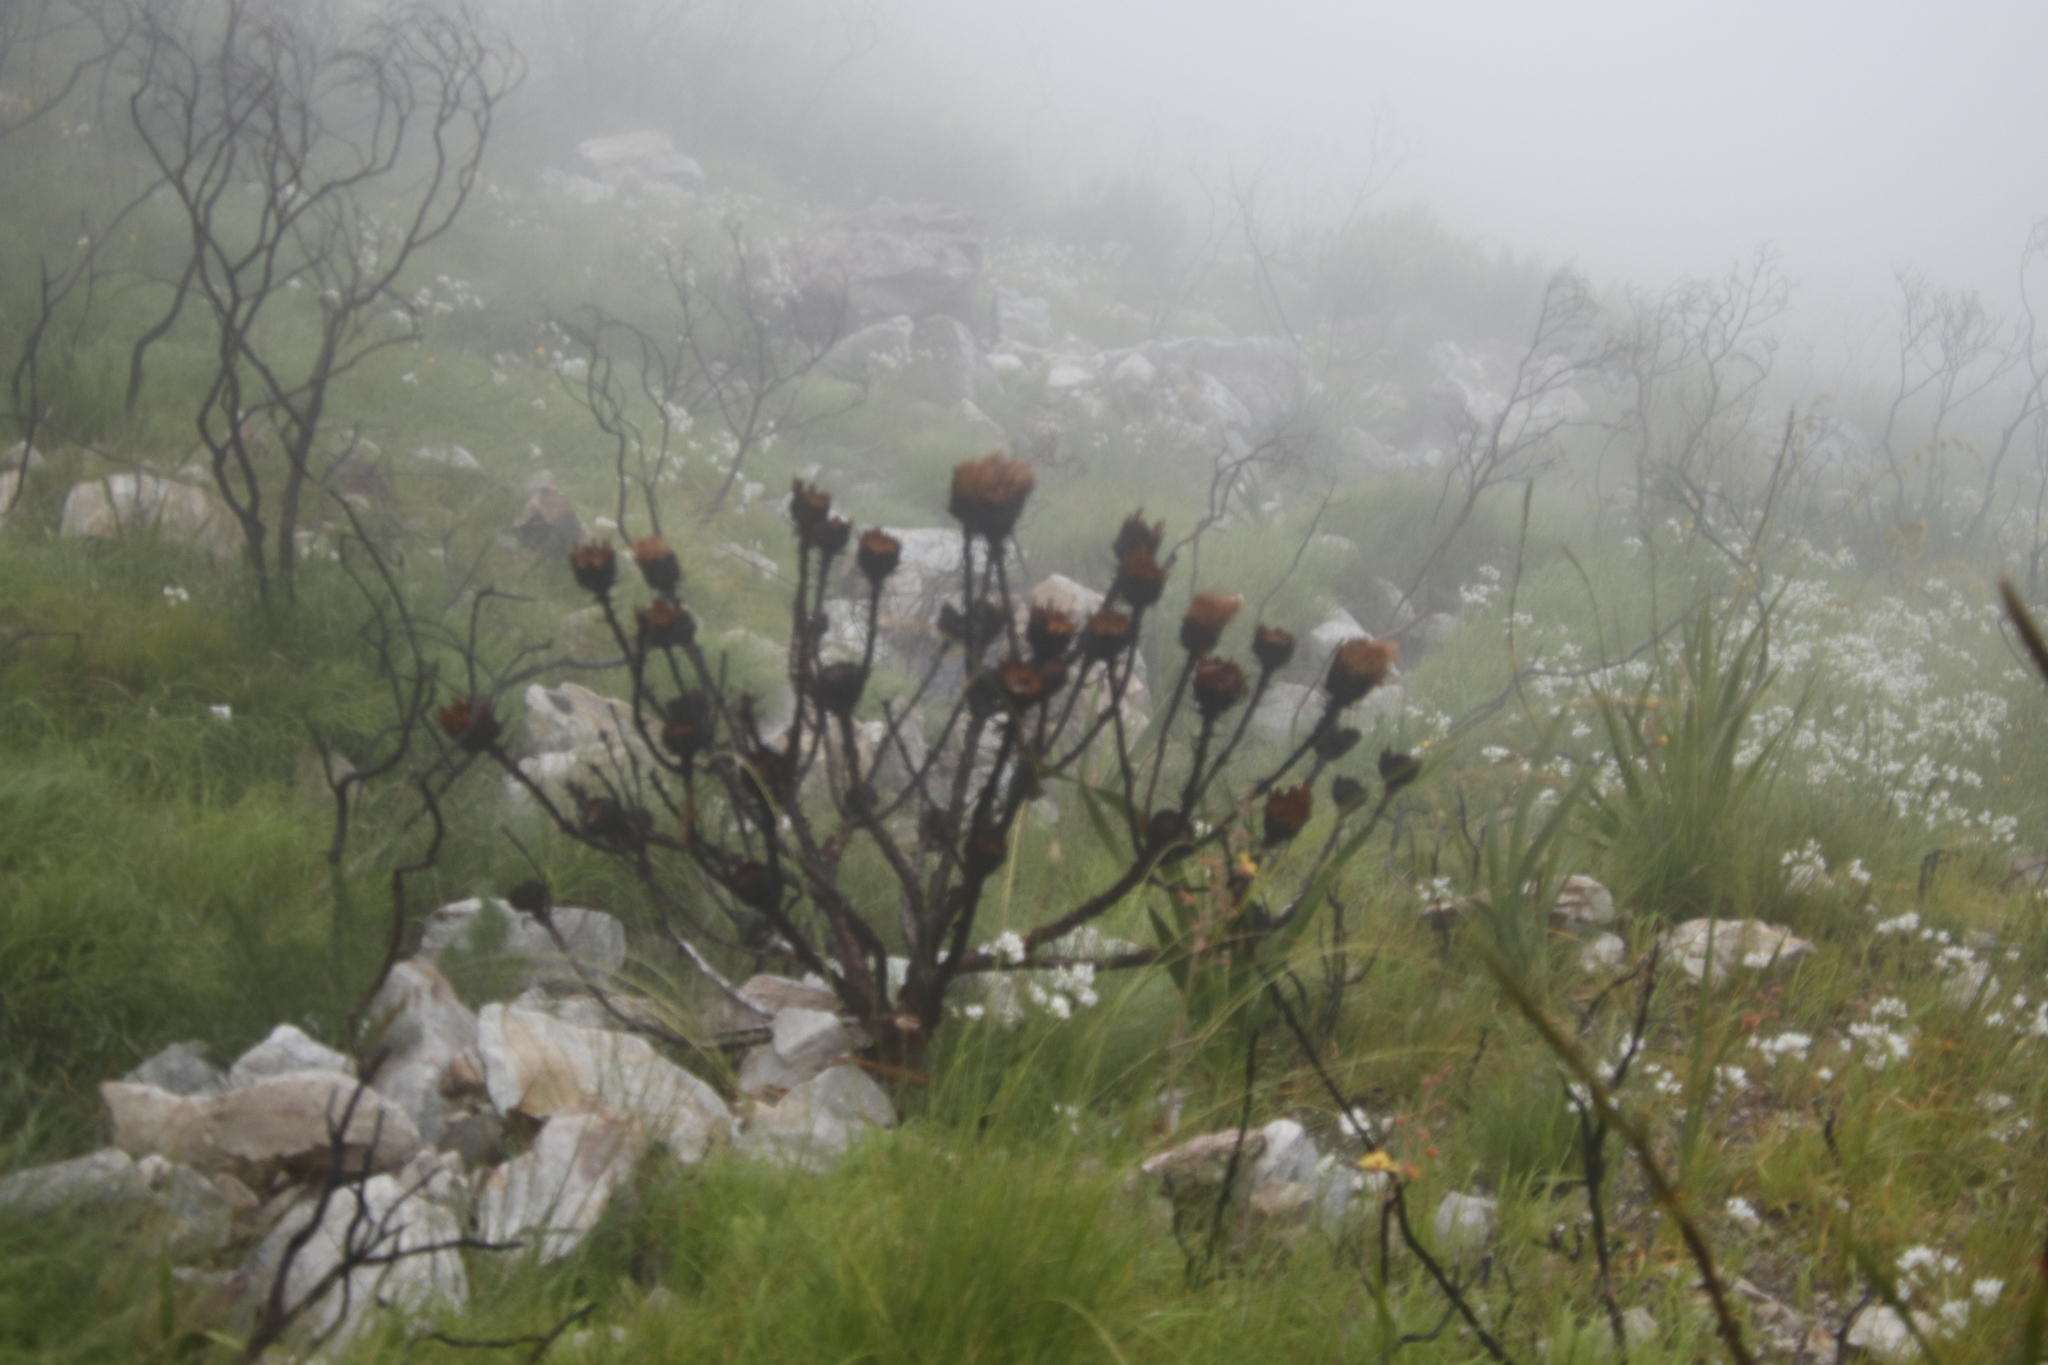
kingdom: Plantae
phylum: Tracheophyta
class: Magnoliopsida
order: Proteales
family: Proteaceae
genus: Protea
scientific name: Protea grandiceps
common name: Red sugarbush
